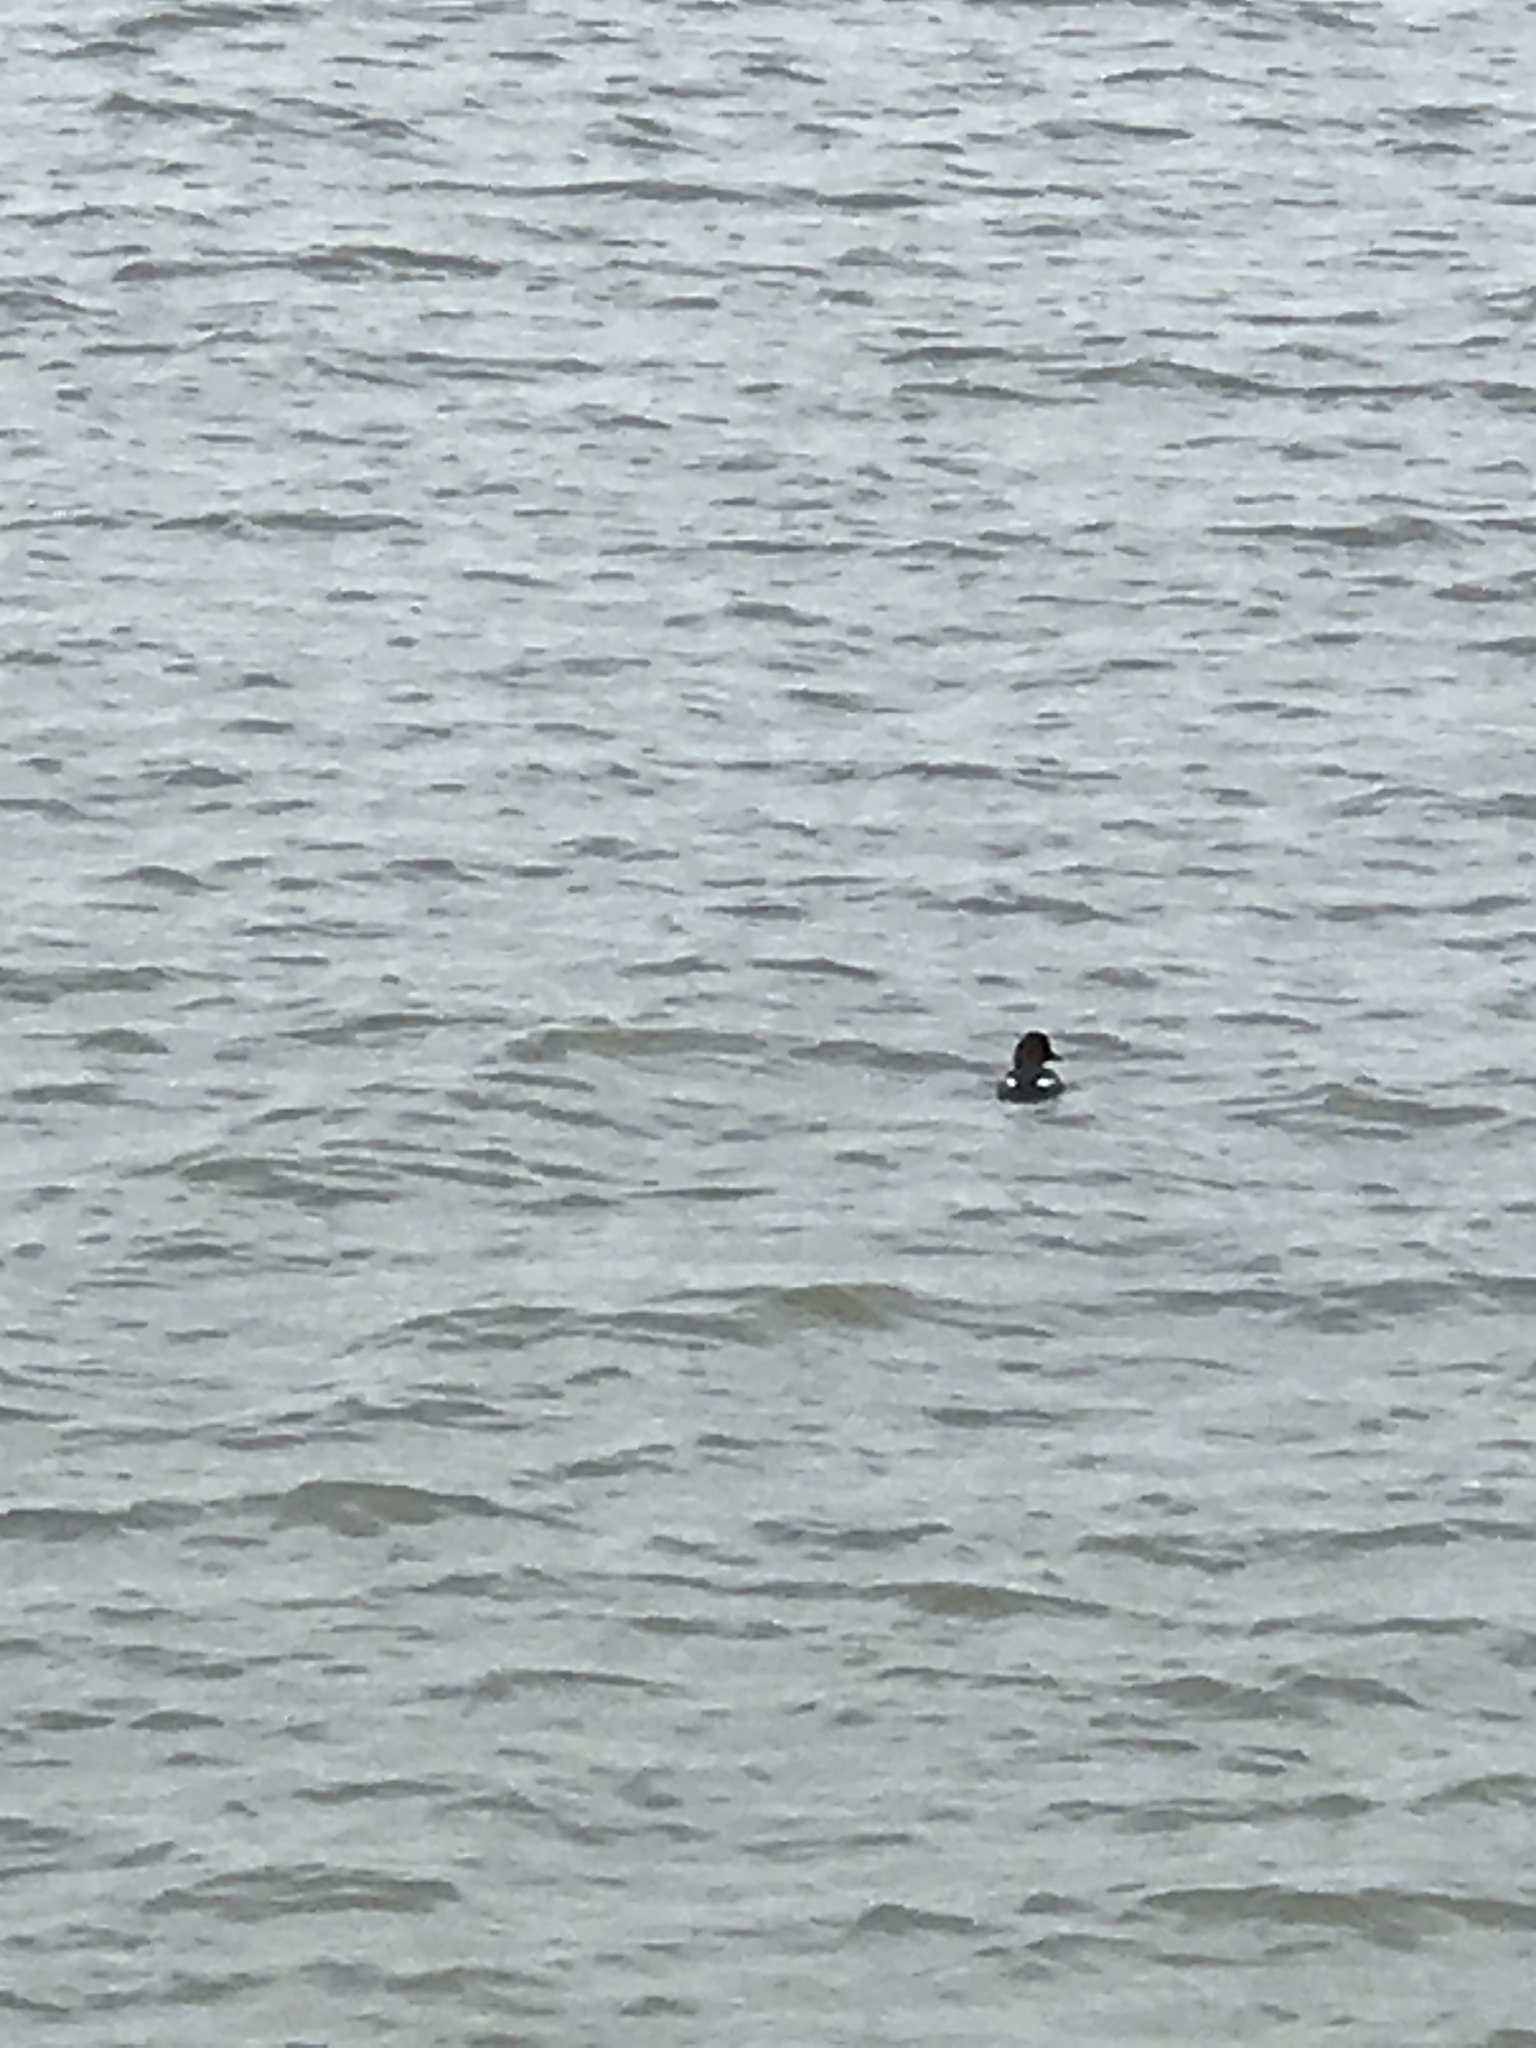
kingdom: Animalia
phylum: Chordata
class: Aves
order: Anseriformes
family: Anatidae
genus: Bucephala
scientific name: Bucephala clangula
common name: Common goldeneye
